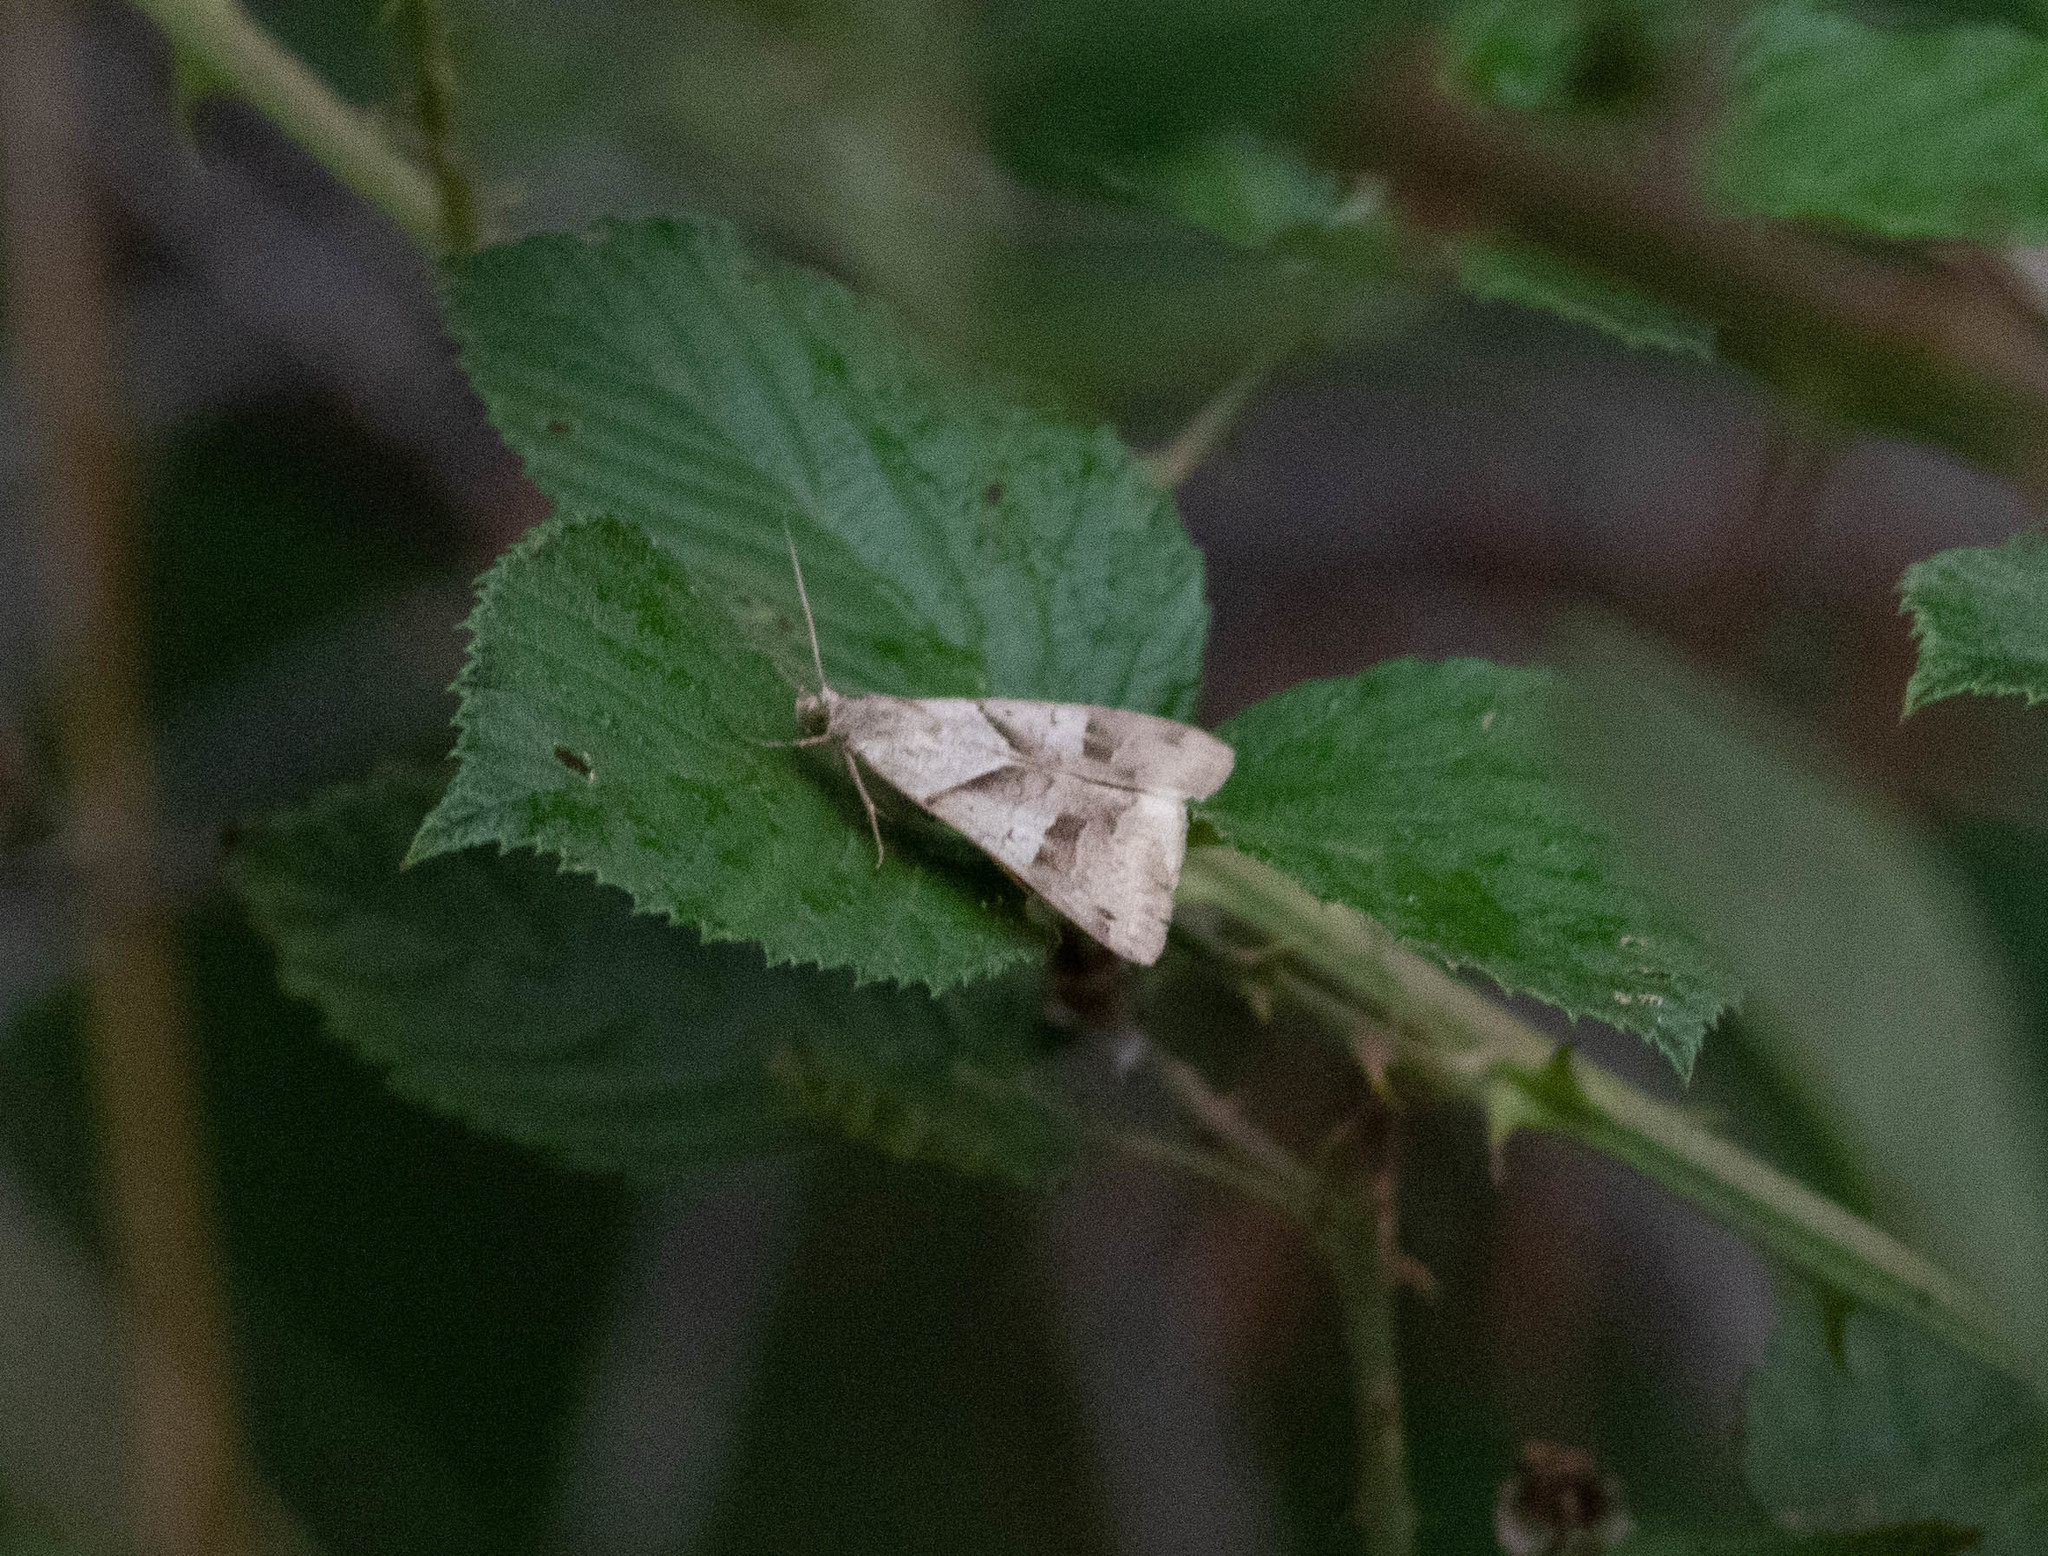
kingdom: Animalia
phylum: Arthropoda
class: Insecta
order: Lepidoptera
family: Erebidae
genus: Caenurgina
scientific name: Caenurgina erechtea
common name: Forage looper moth
